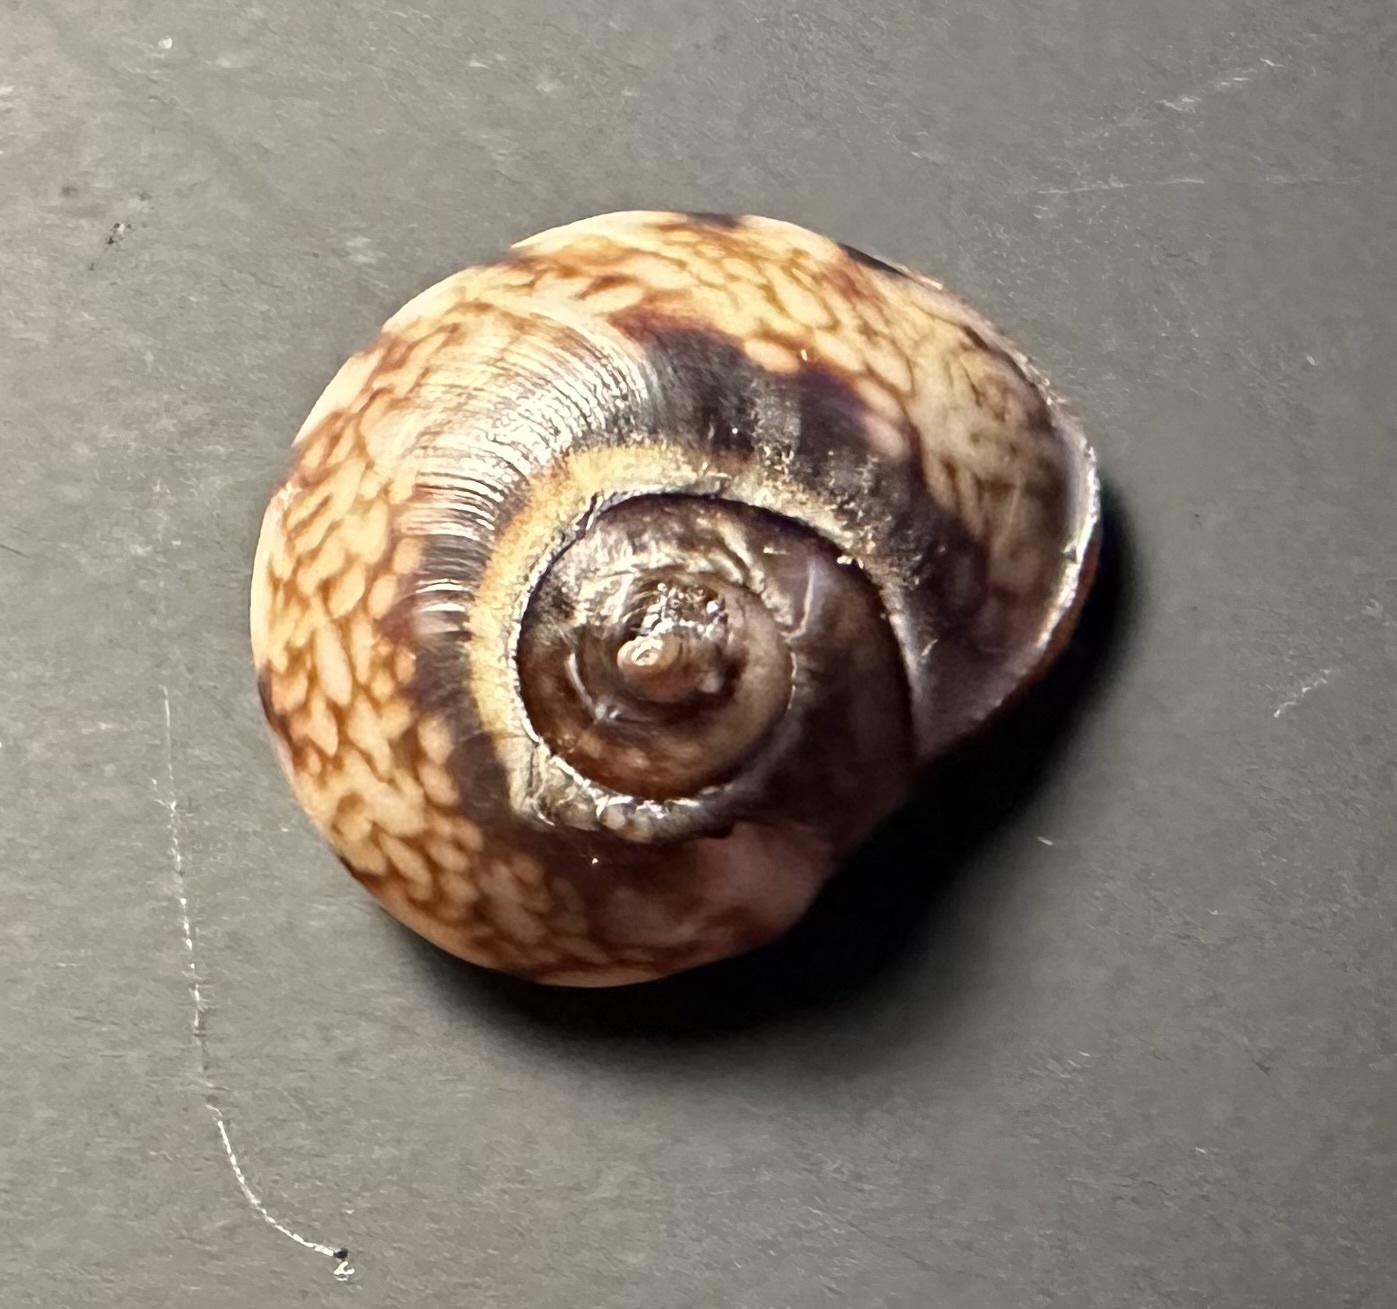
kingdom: Animalia
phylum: Mollusca
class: Gastropoda
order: Neogastropoda
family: Nassariidae
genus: Tritia
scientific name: Tritia neritea
